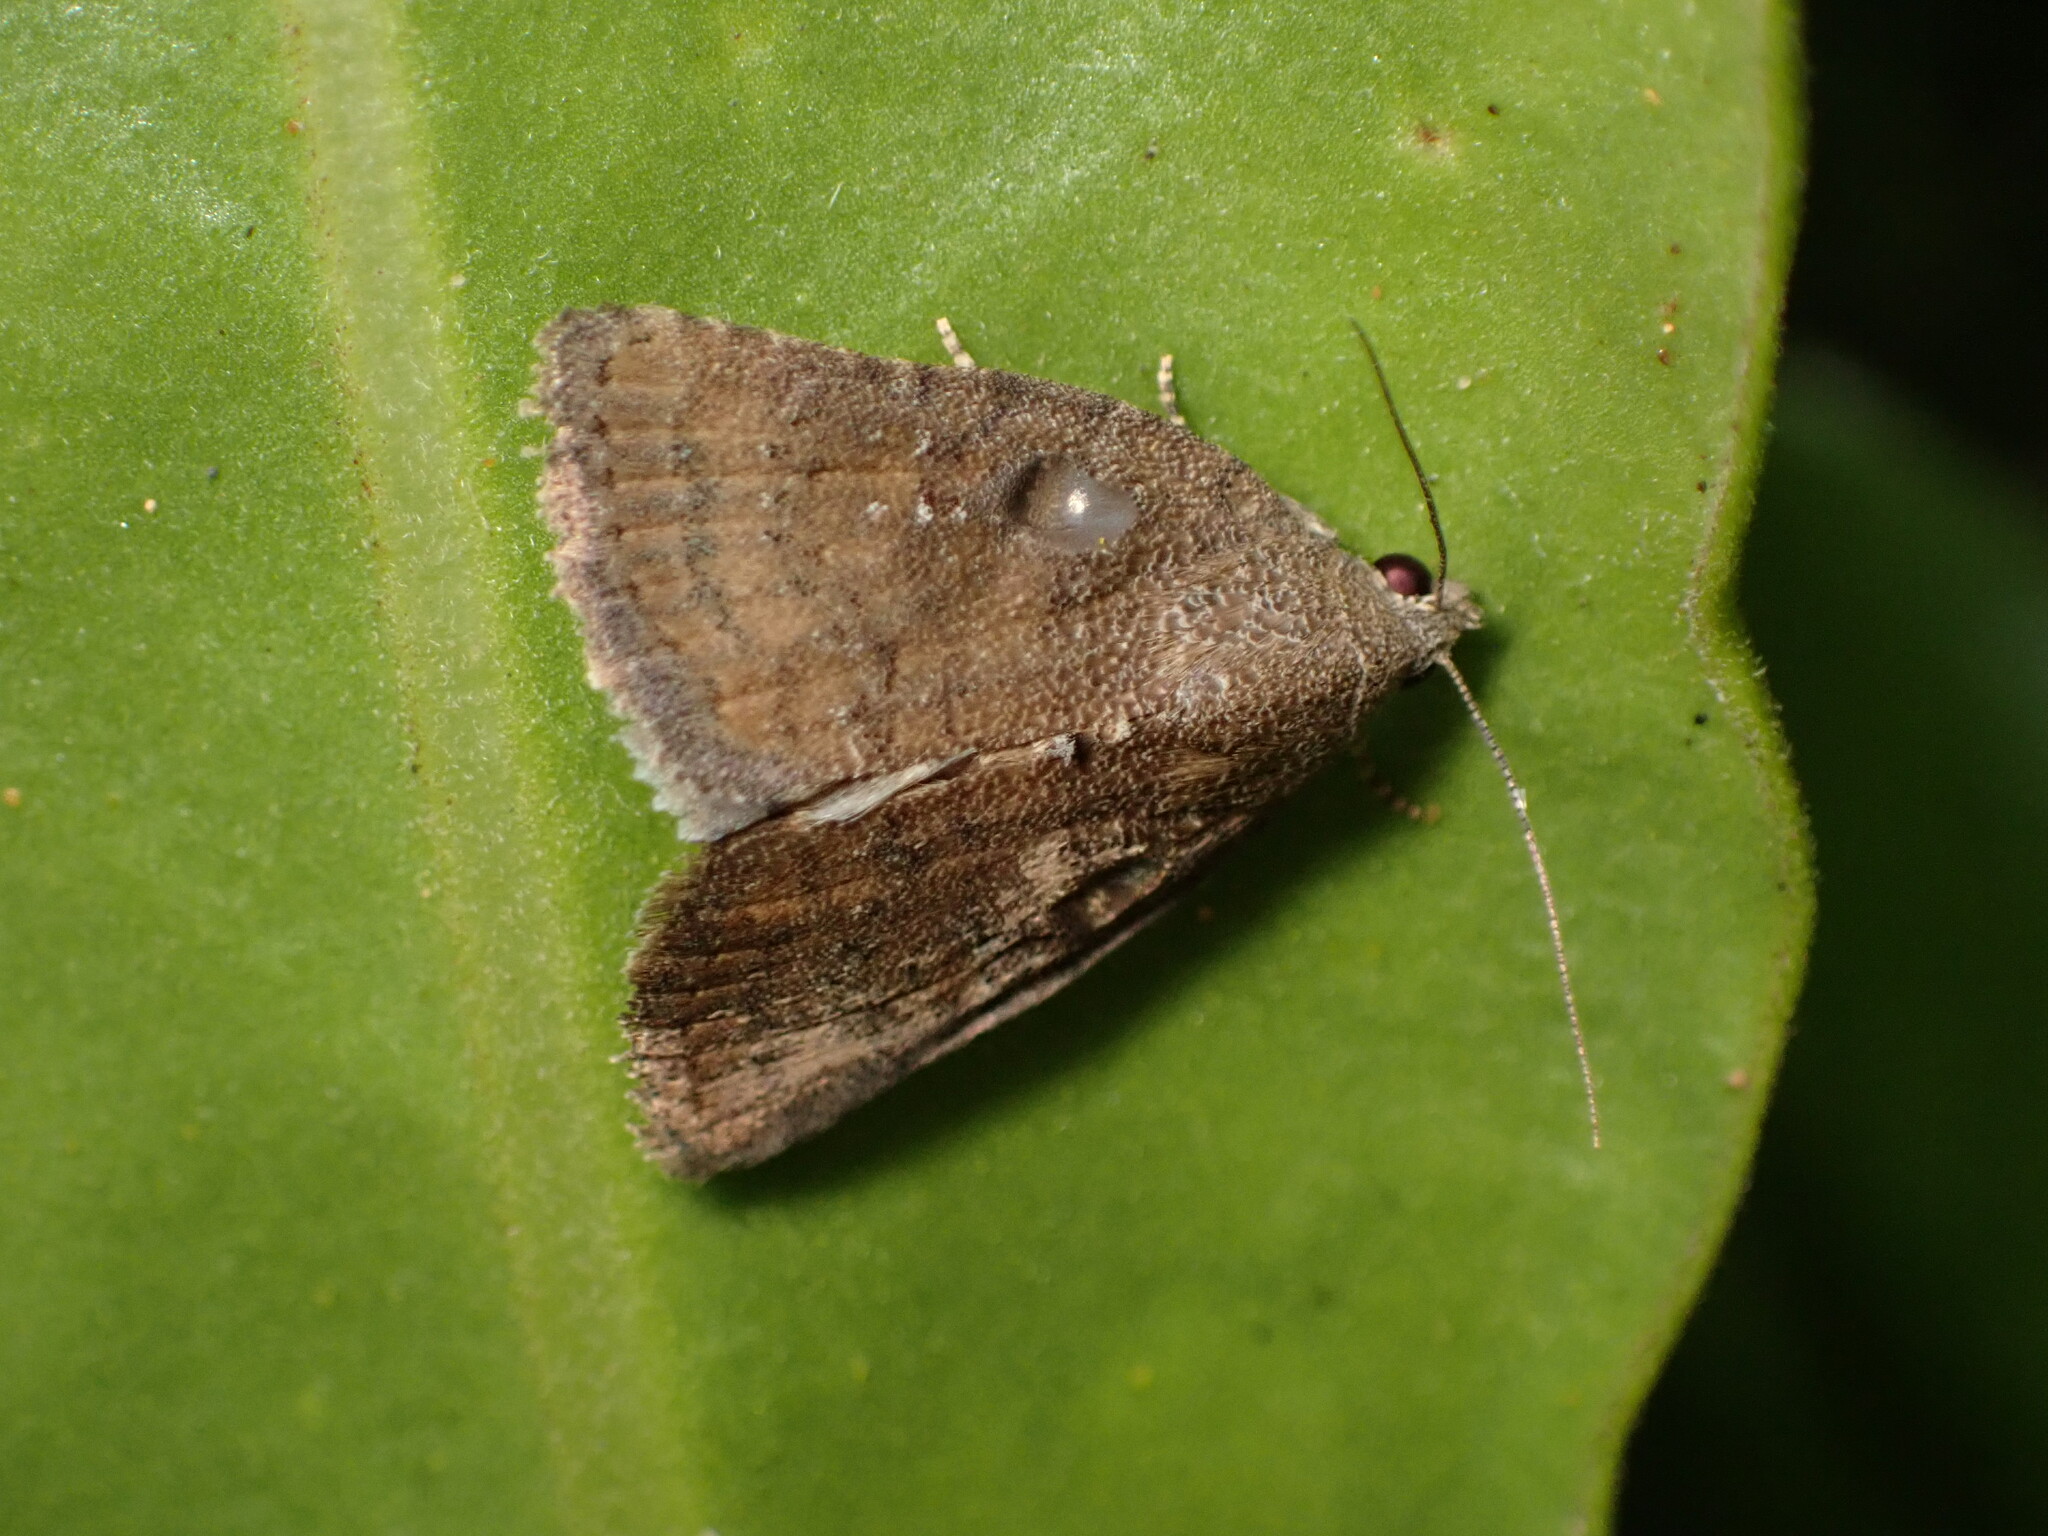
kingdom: Animalia
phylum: Arthropoda
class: Insecta
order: Lepidoptera
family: Noctuidae
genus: Amyna
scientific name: Amyna natalis
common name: Iiima moth
